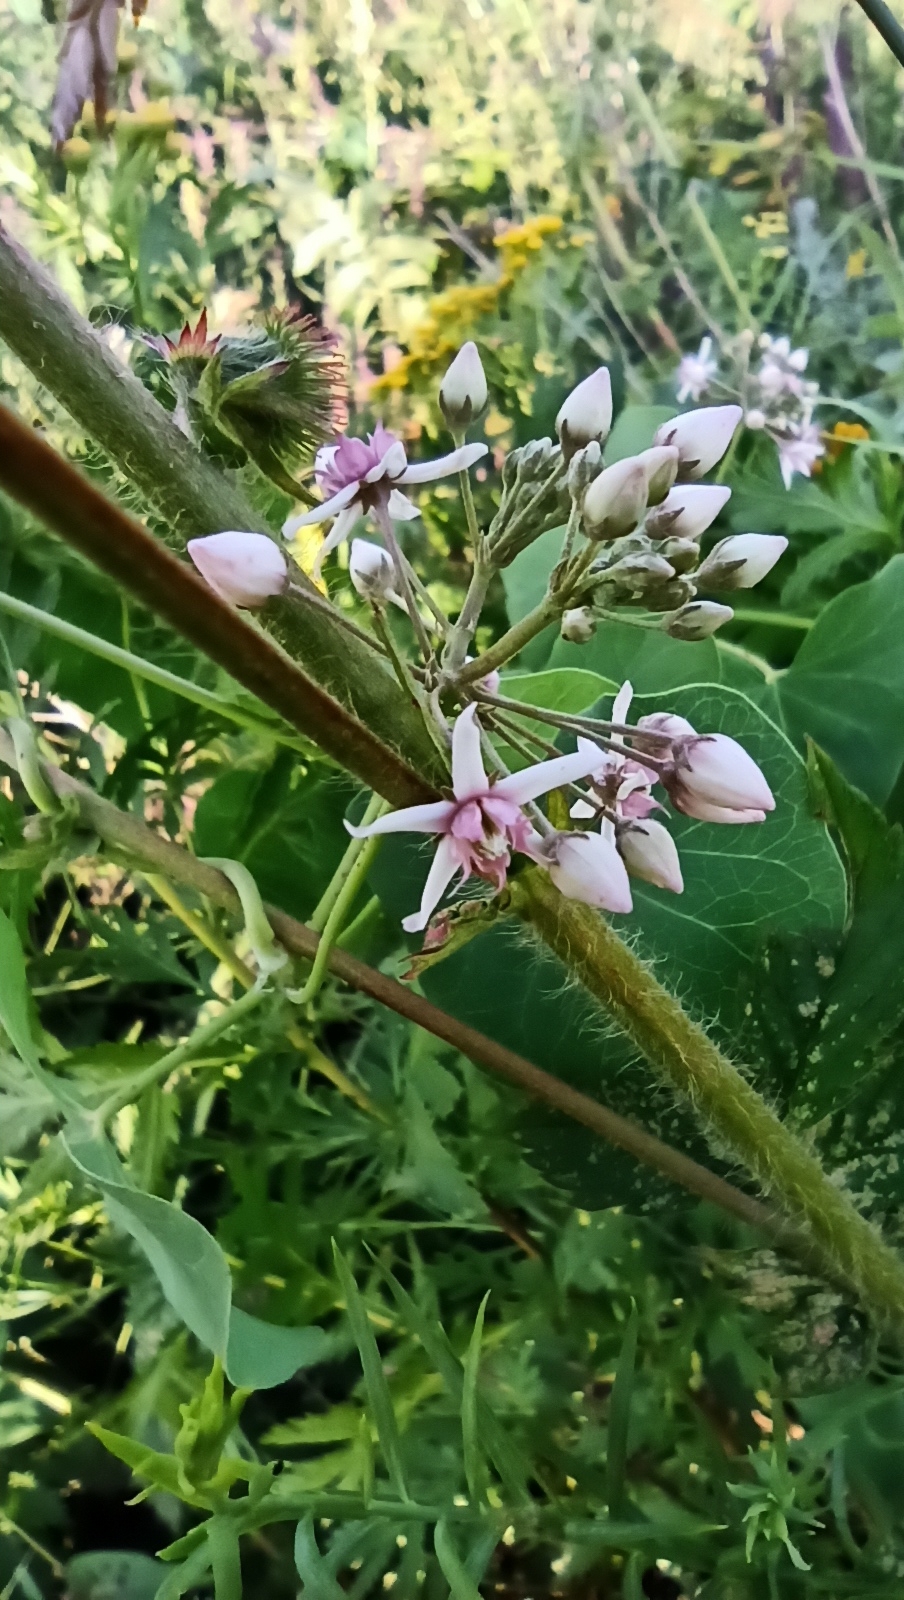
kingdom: Plantae
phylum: Tracheophyta
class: Magnoliopsida
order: Gentianales
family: Apocynaceae
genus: Cynanchum
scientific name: Cynanchum acutum
